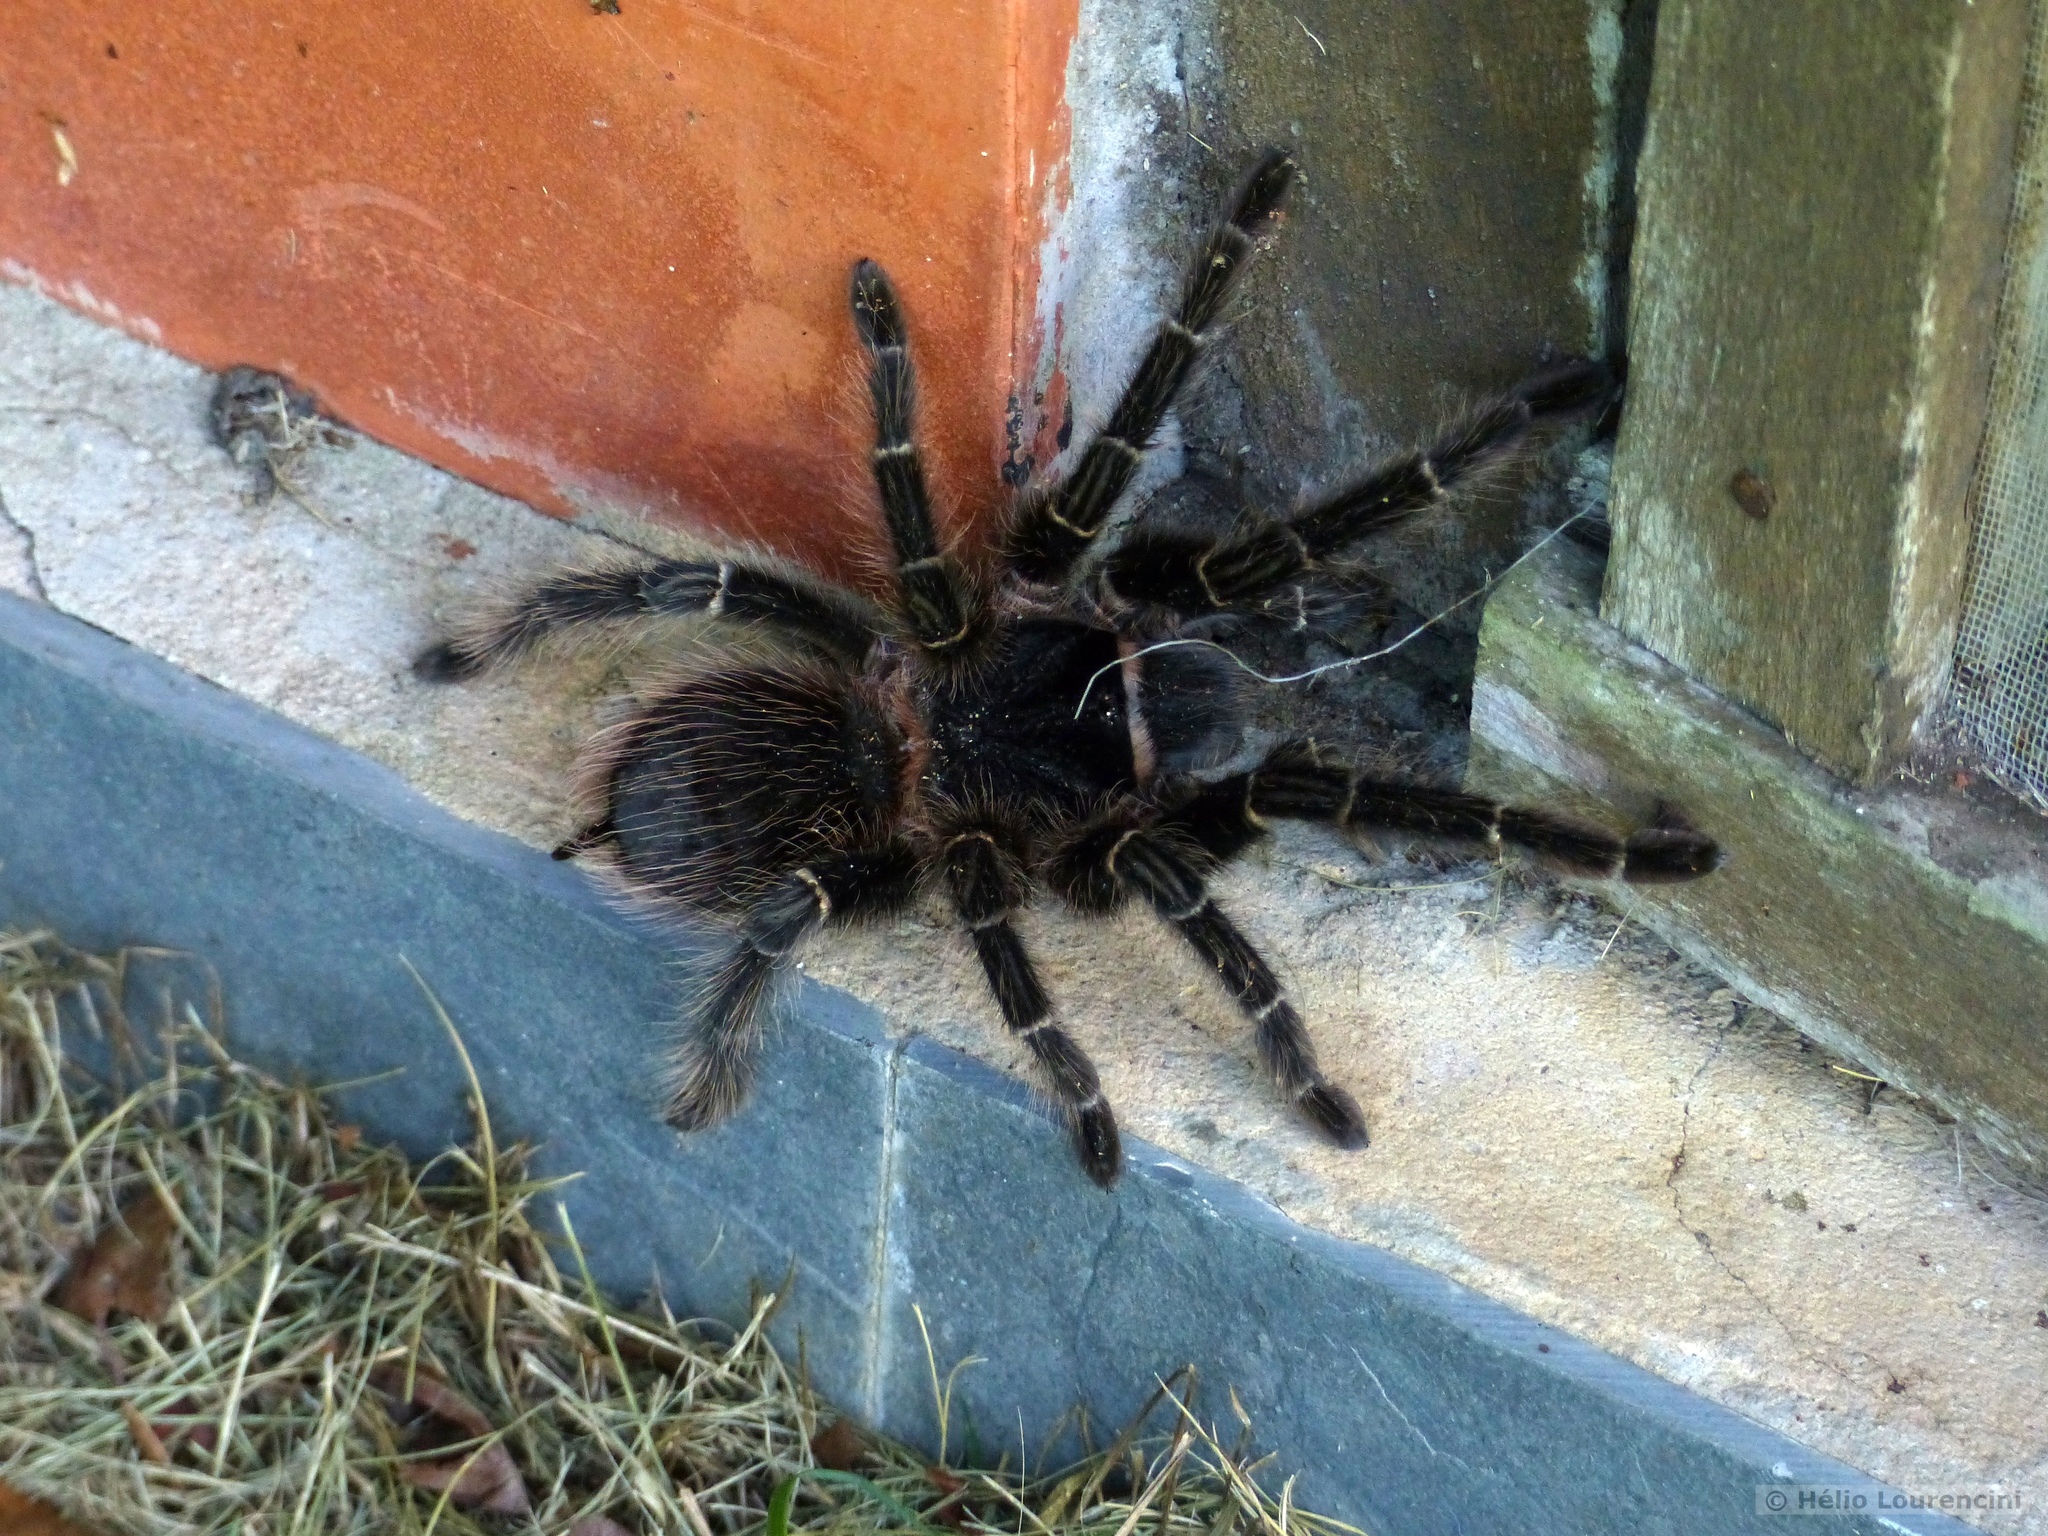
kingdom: Animalia
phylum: Arthropoda
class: Arachnida
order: Araneae
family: Theraphosidae
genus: Lasiodora
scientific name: Lasiodora parahybana
